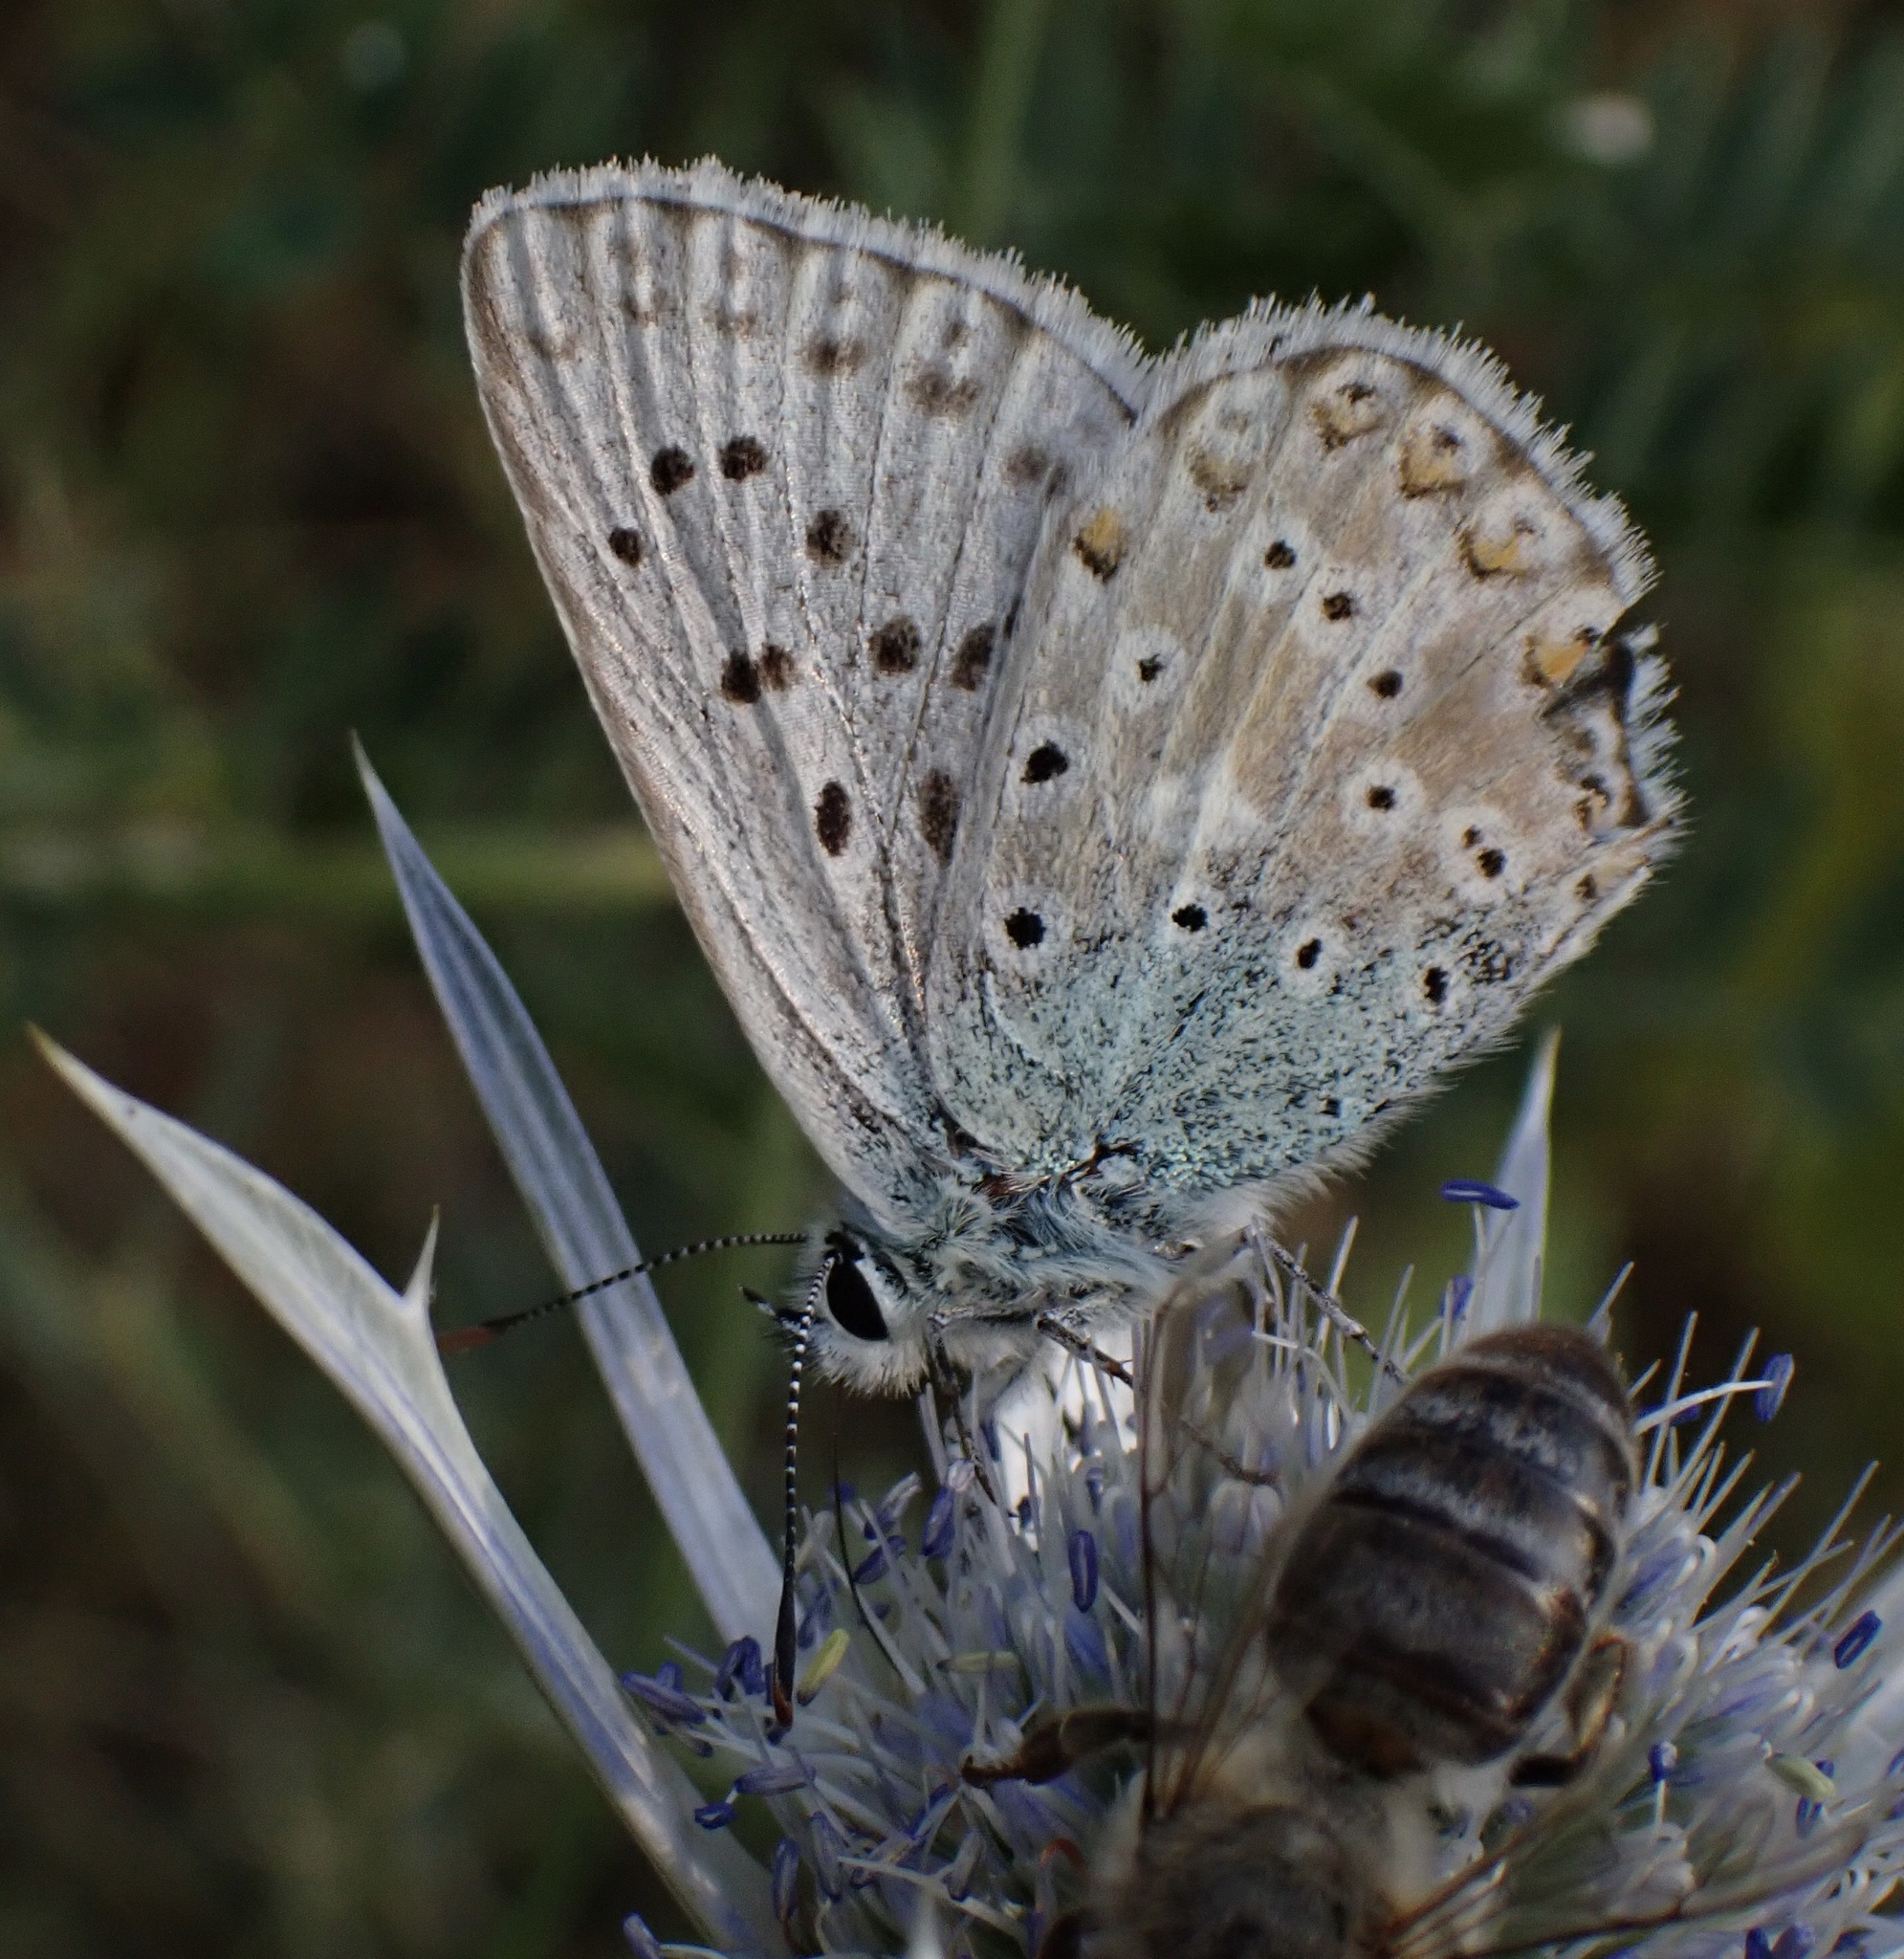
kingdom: Animalia
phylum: Arthropoda
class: Insecta
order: Lepidoptera
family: Lycaenidae
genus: Lysandra
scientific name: Lysandra coridon
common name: Chalkhill blue
